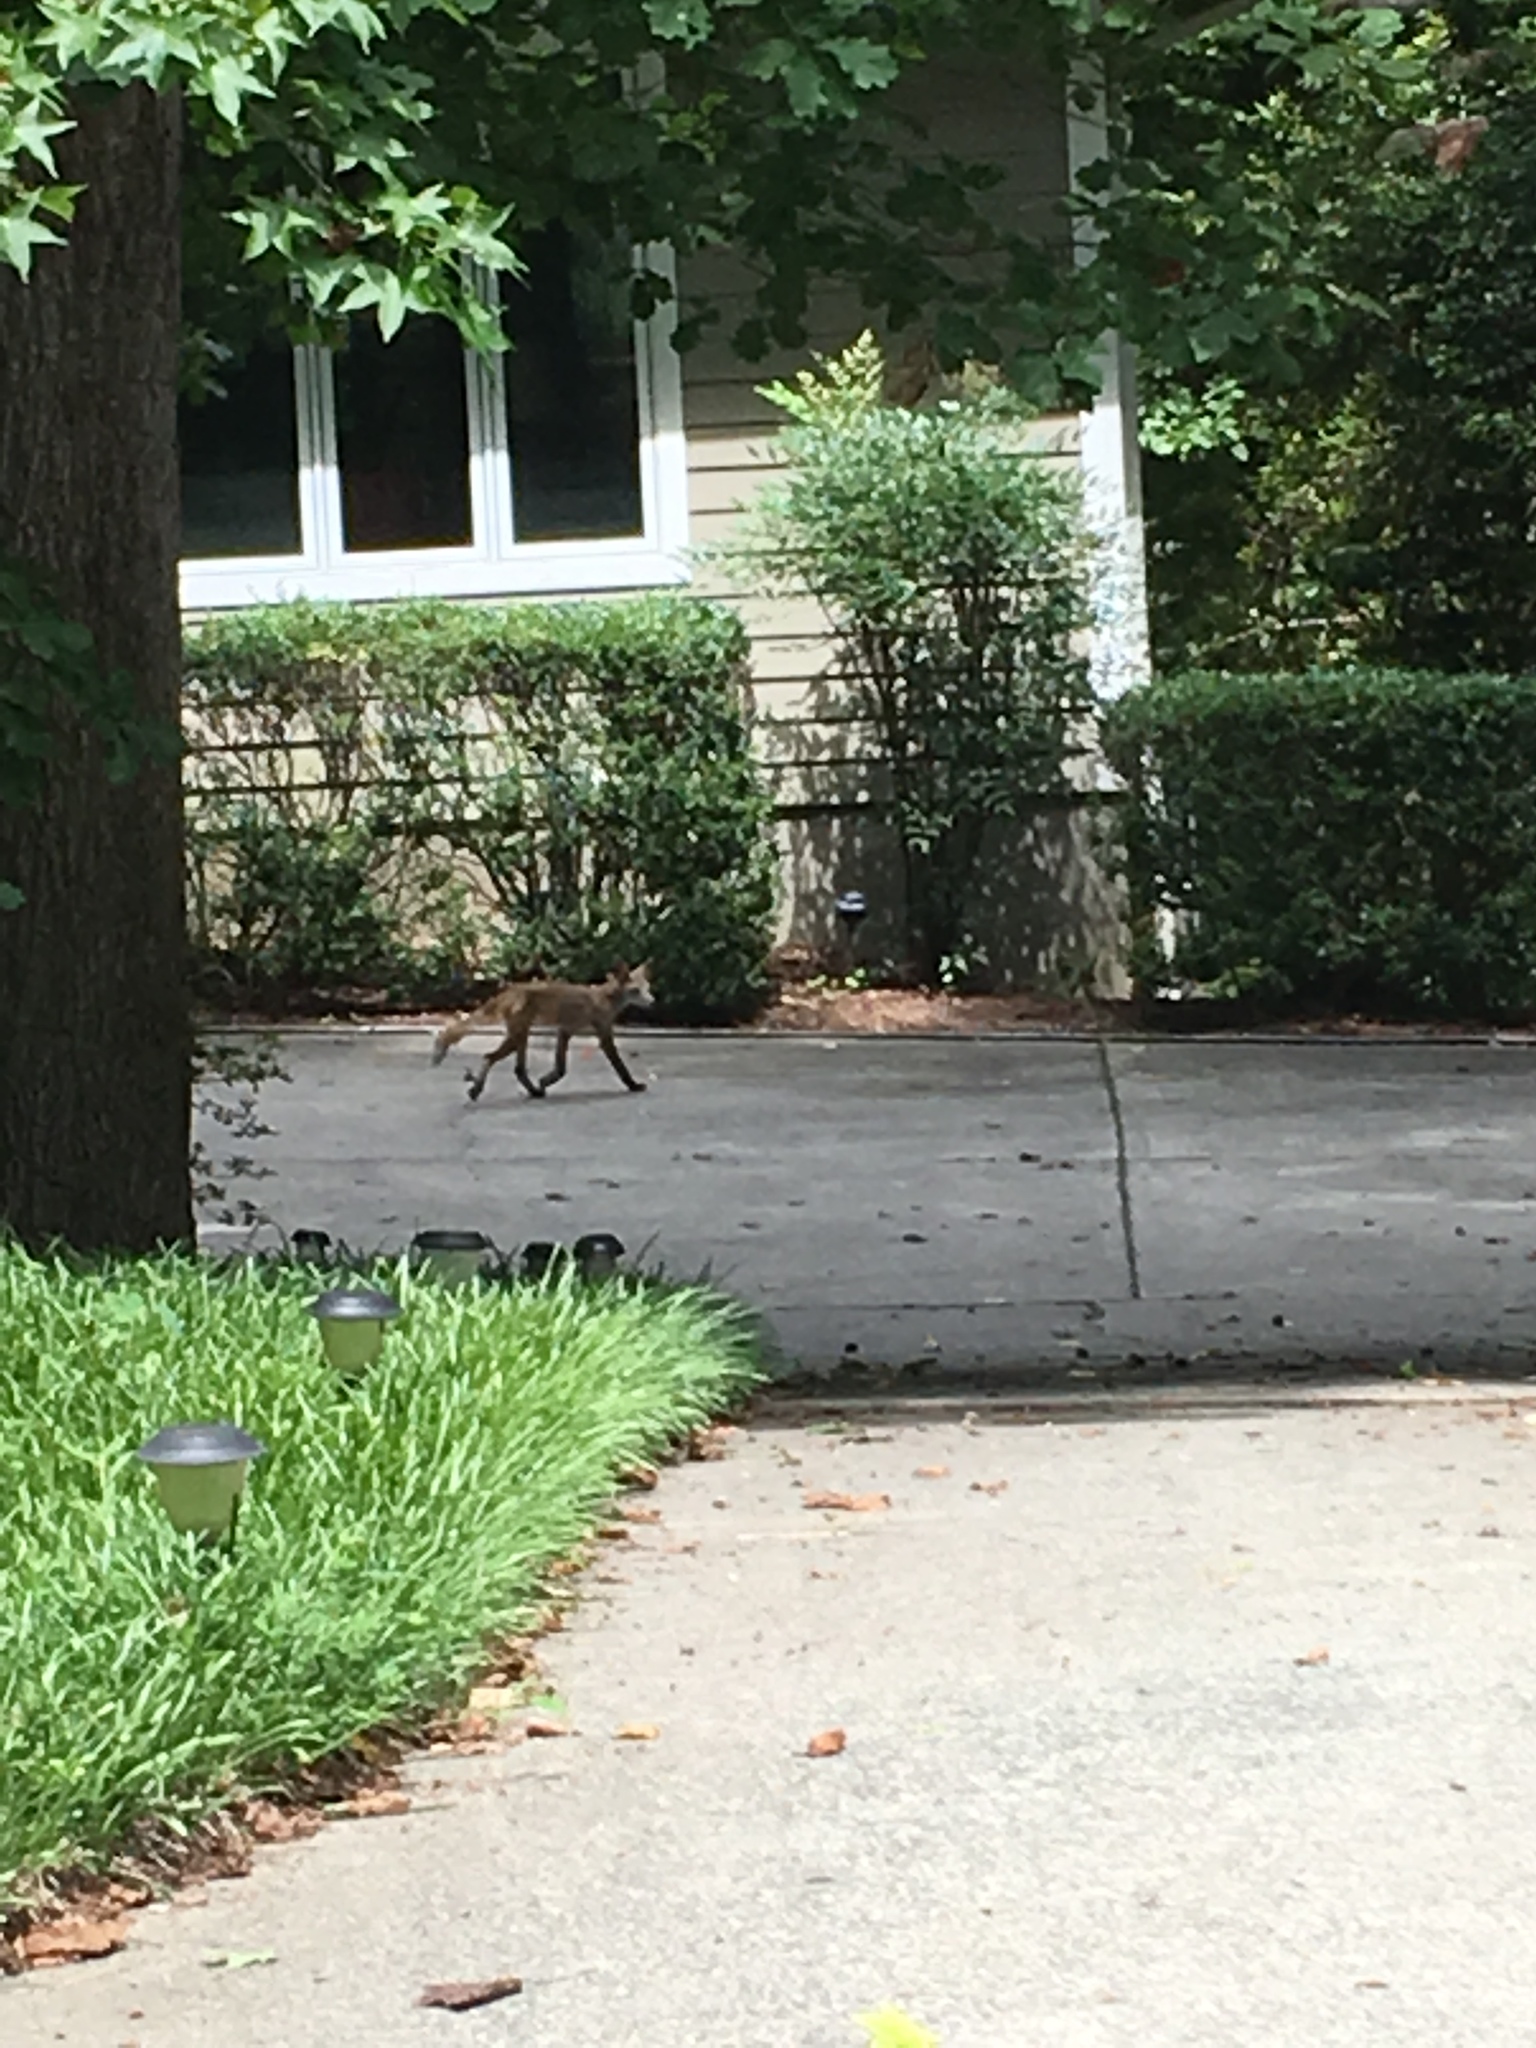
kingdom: Animalia
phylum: Chordata
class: Mammalia
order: Carnivora
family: Canidae
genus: Vulpes
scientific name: Vulpes vulpes
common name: Red fox
